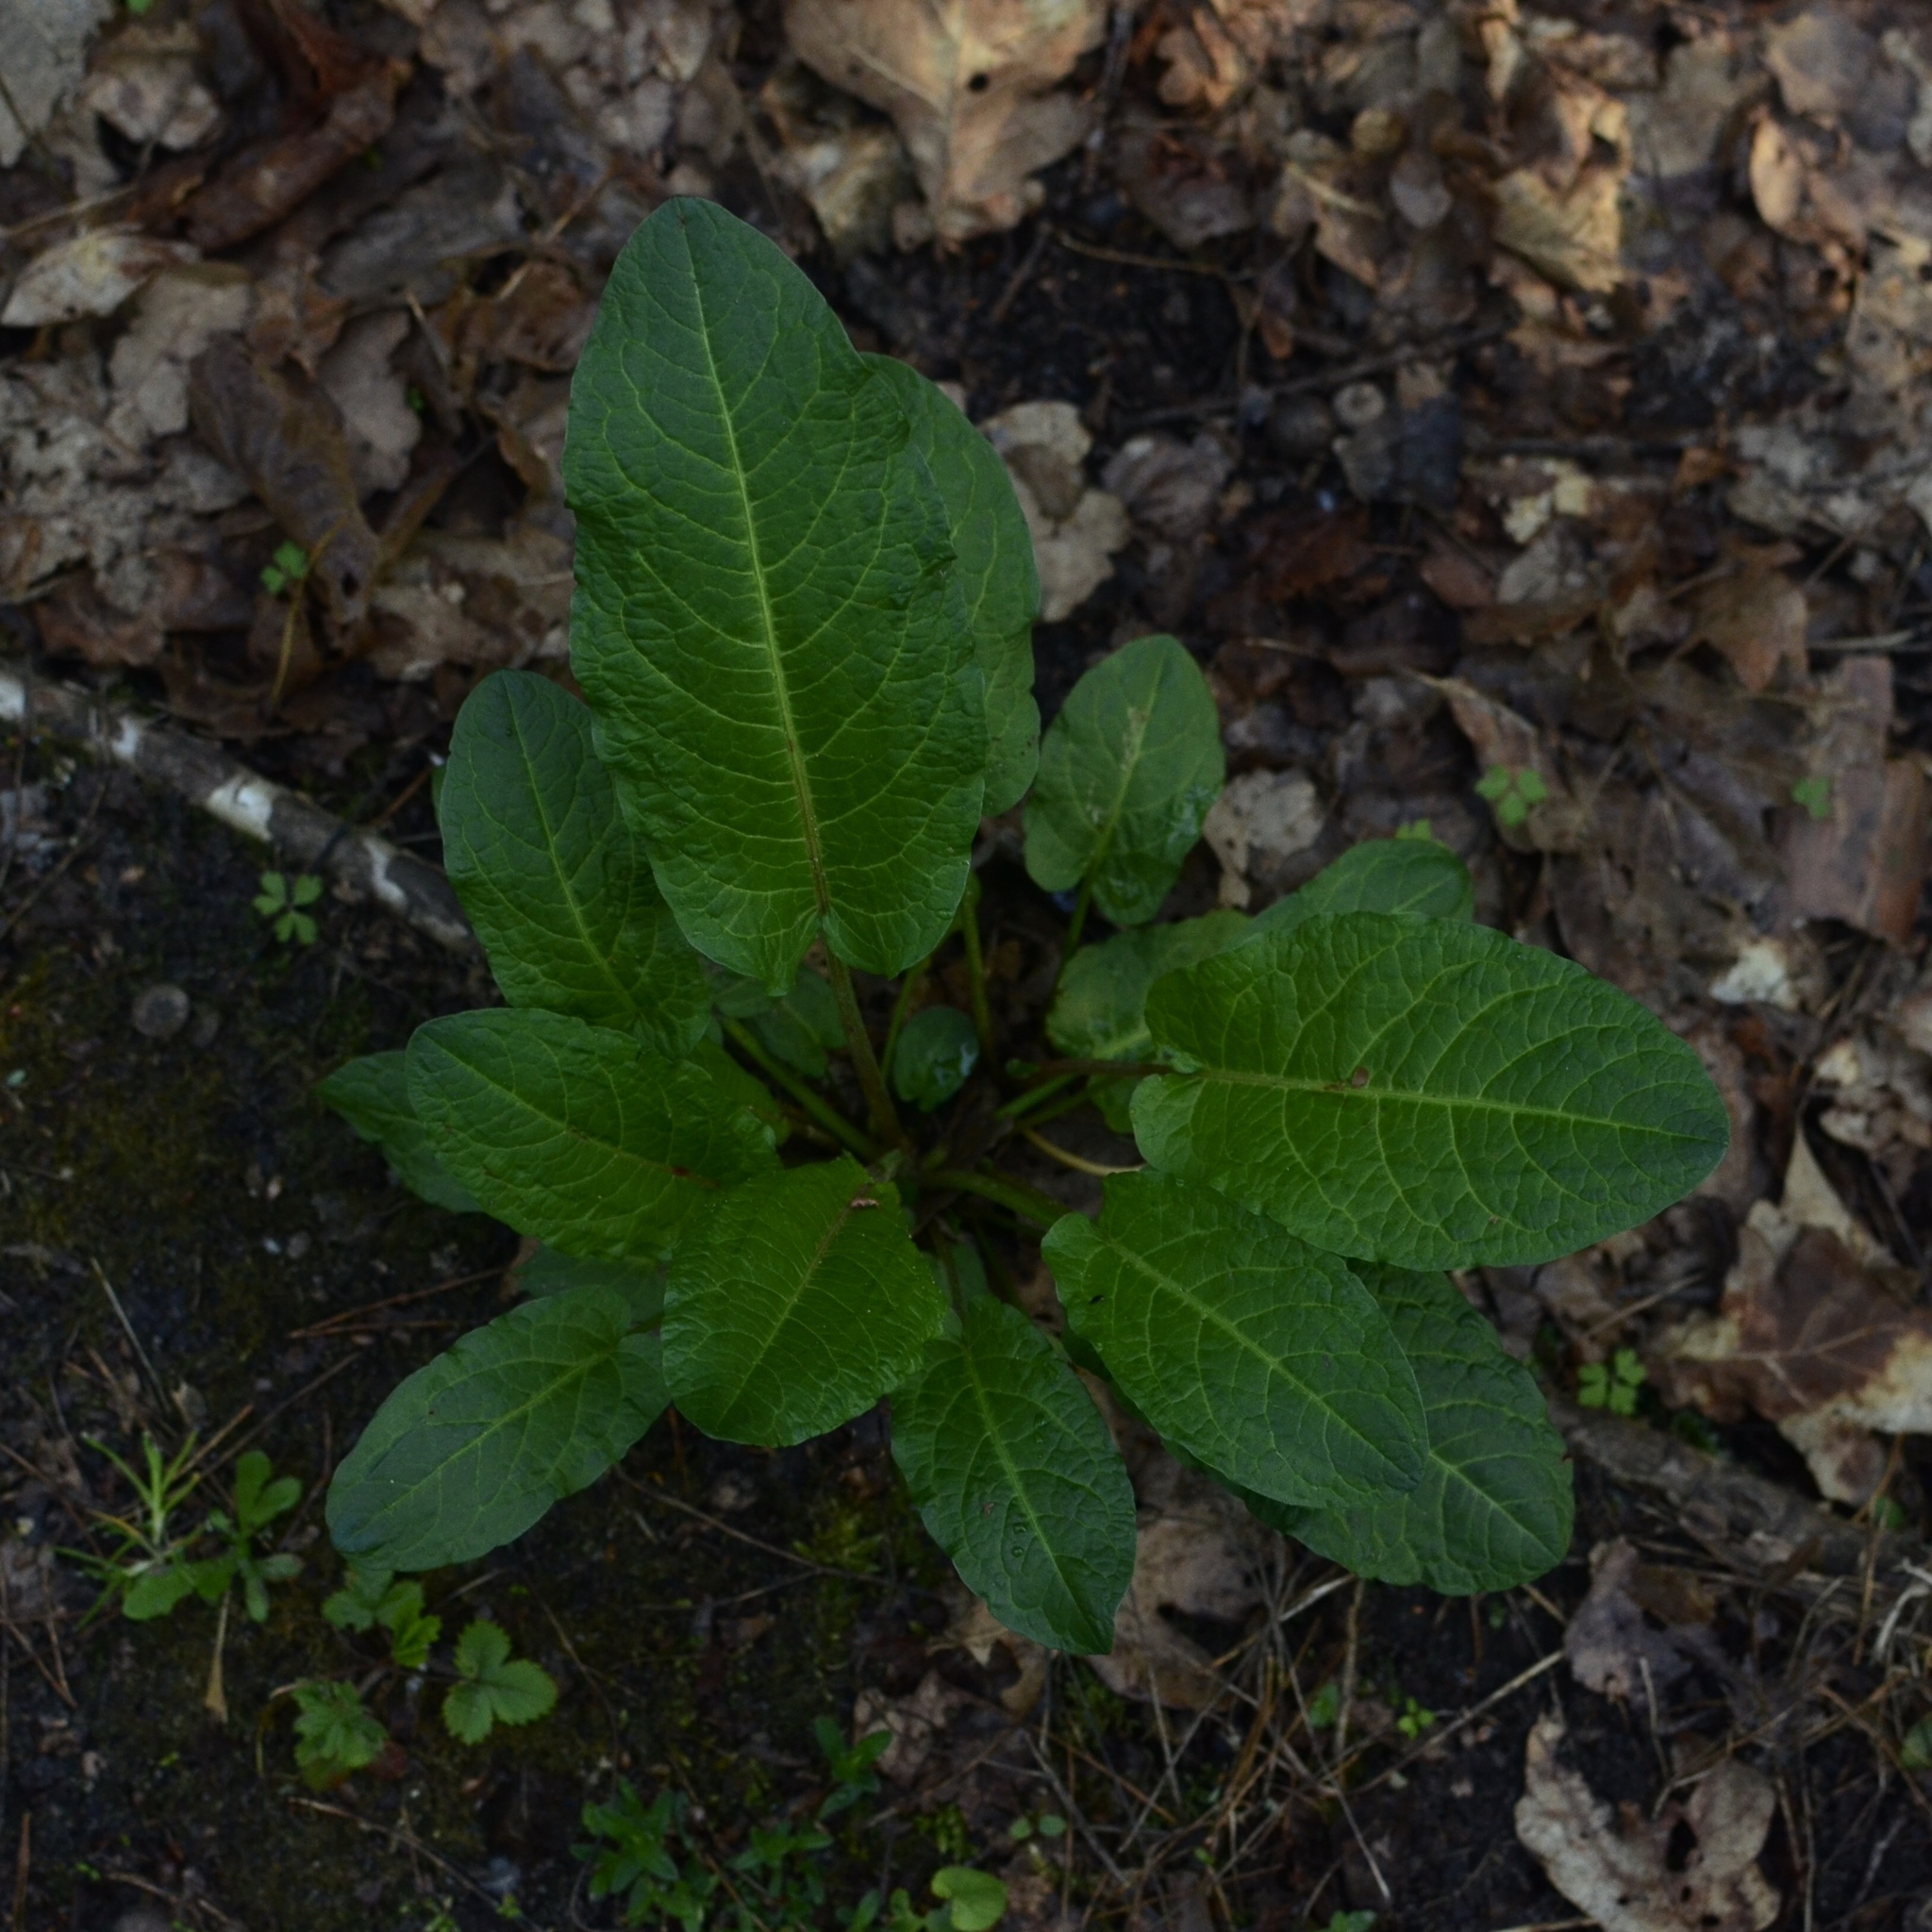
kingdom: Plantae
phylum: Tracheophyta
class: Magnoliopsida
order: Caryophyllales
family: Polygonaceae
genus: Rumex
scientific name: Rumex obtusifolius
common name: Bitter dock
